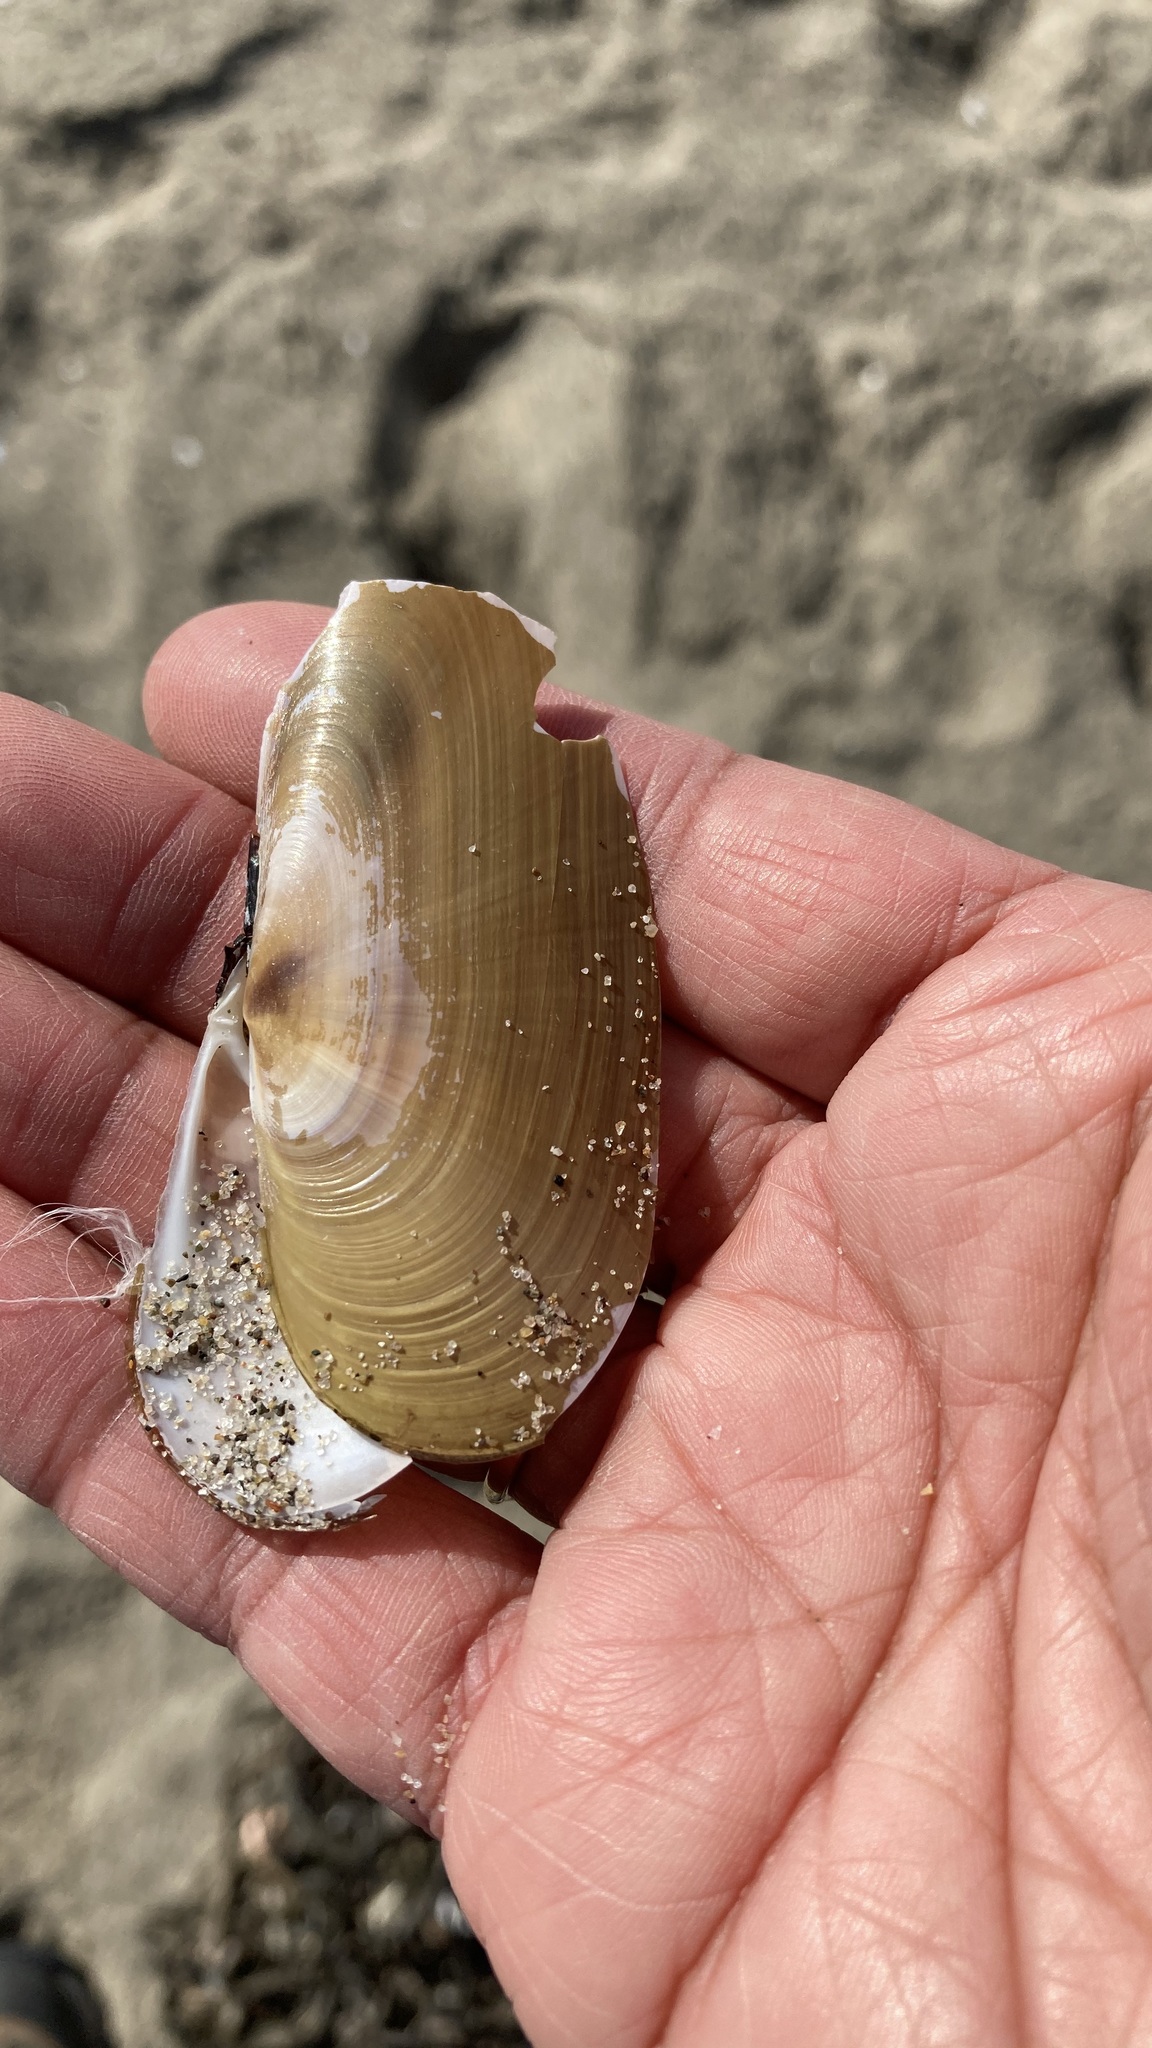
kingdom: Animalia
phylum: Mollusca
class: Bivalvia
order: Adapedonta
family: Pharidae
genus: Siliqua
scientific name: Siliqua patula
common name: Pacific razor clam
